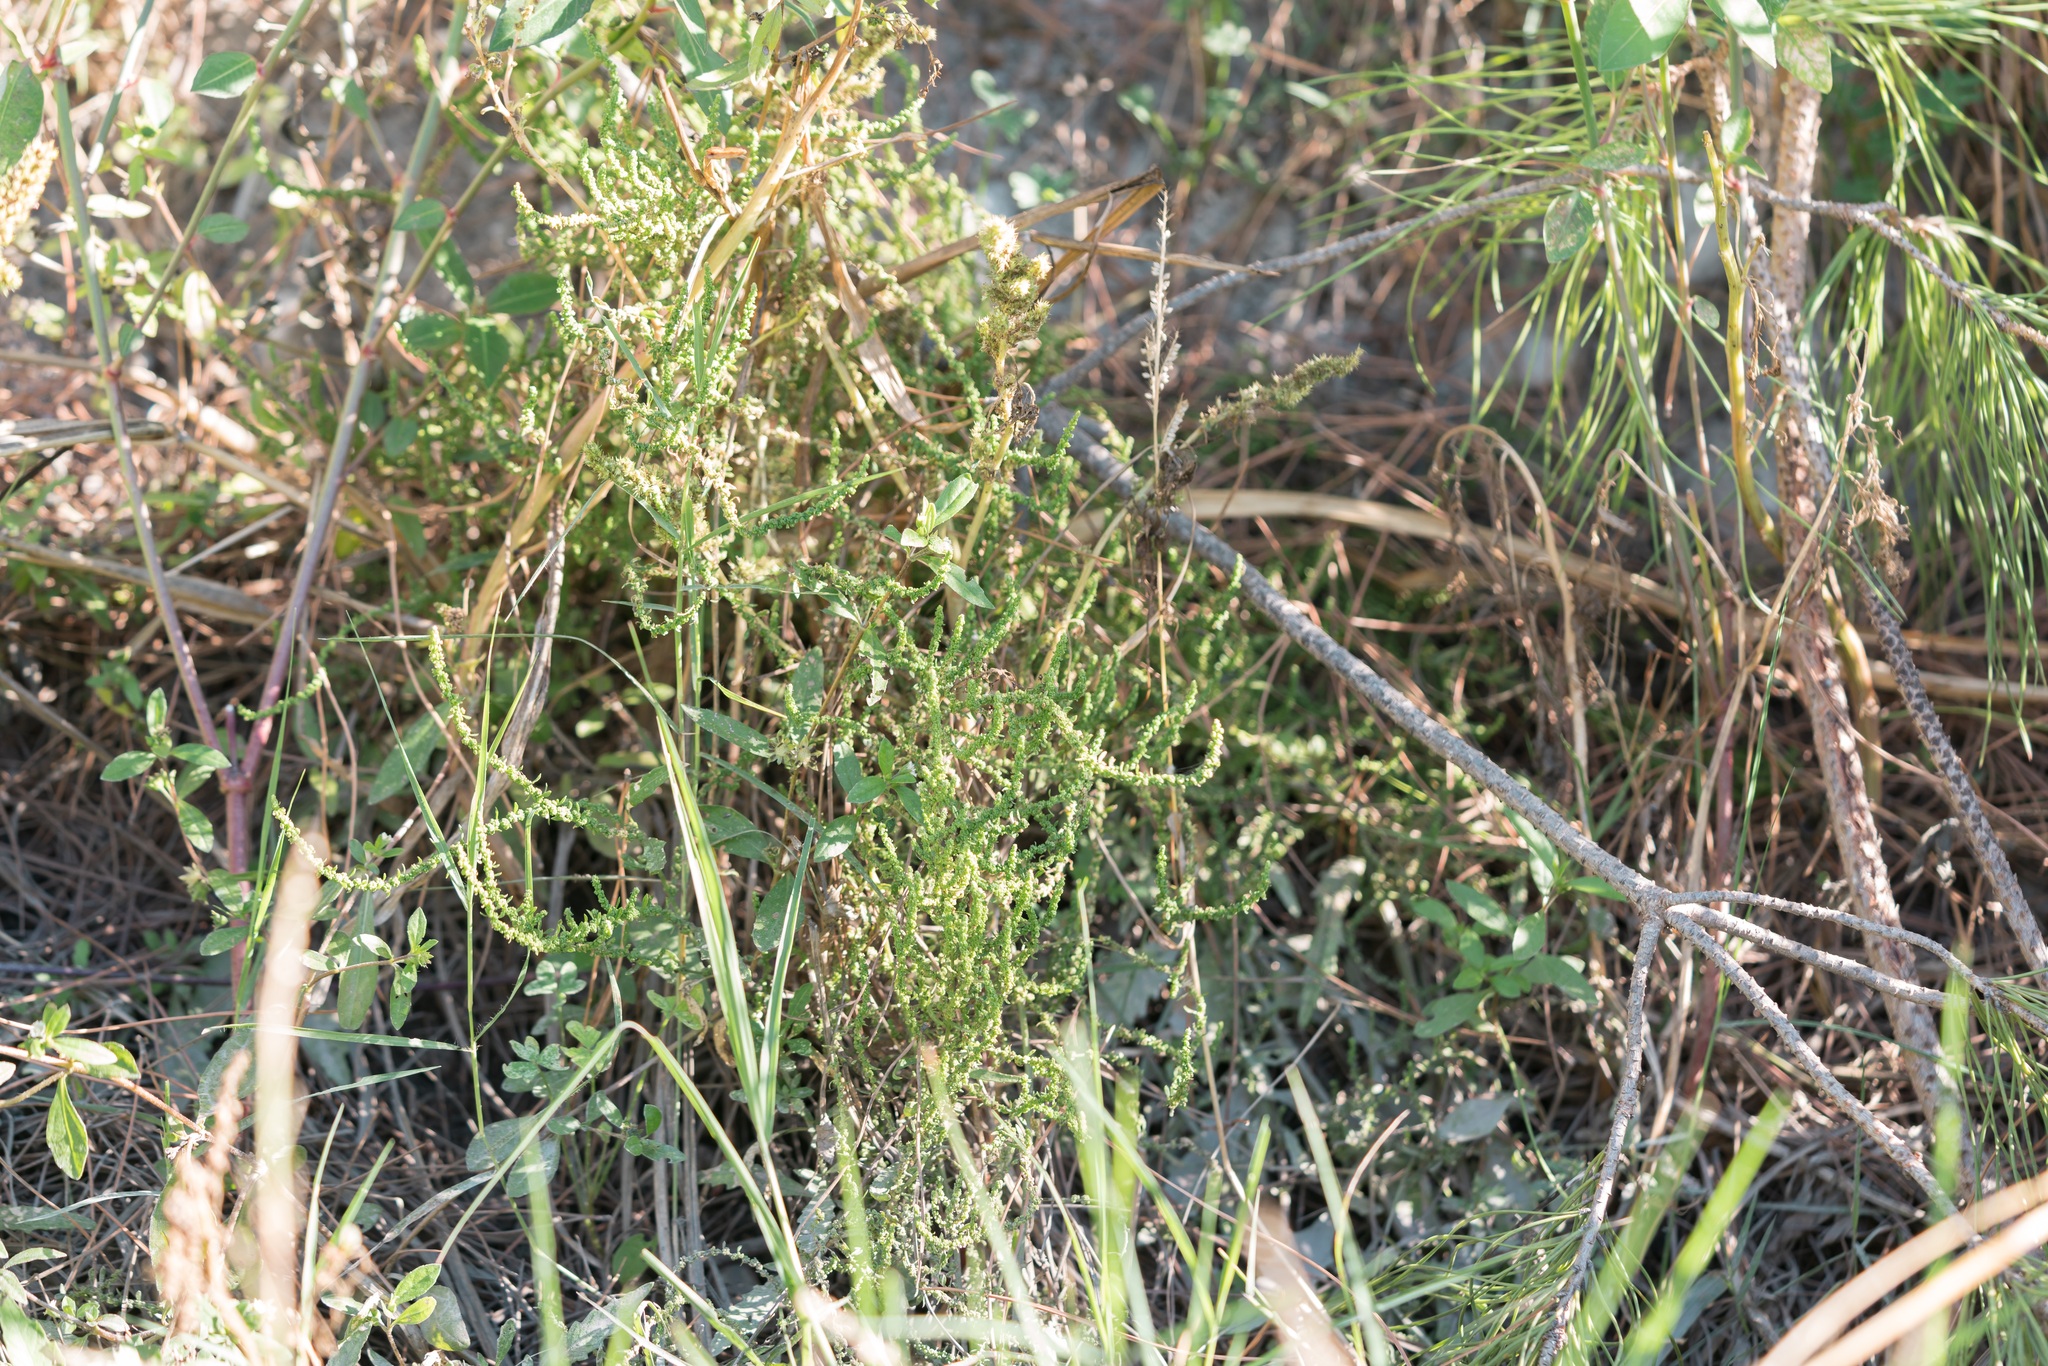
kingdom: Plantae
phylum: Tracheophyta
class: Magnoliopsida
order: Caryophyllales
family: Amaranthaceae
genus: Dysphania
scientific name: Dysphania ambrosioides
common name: Wormseed
